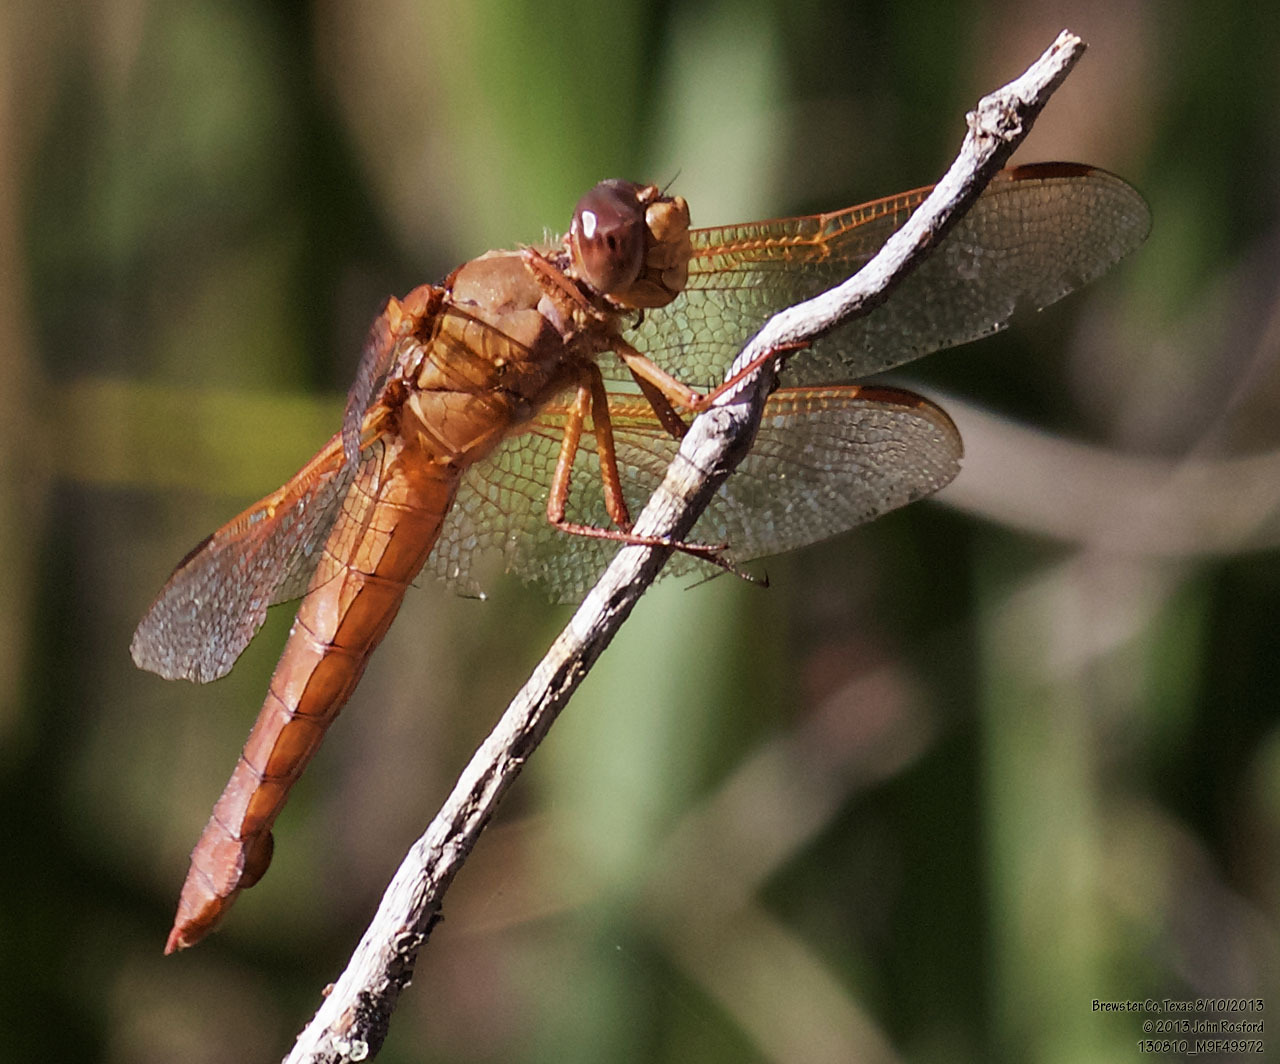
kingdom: Animalia
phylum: Arthropoda
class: Insecta
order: Odonata
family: Libellulidae
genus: Libellula
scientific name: Libellula croceipennis
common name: Neon skimmer
